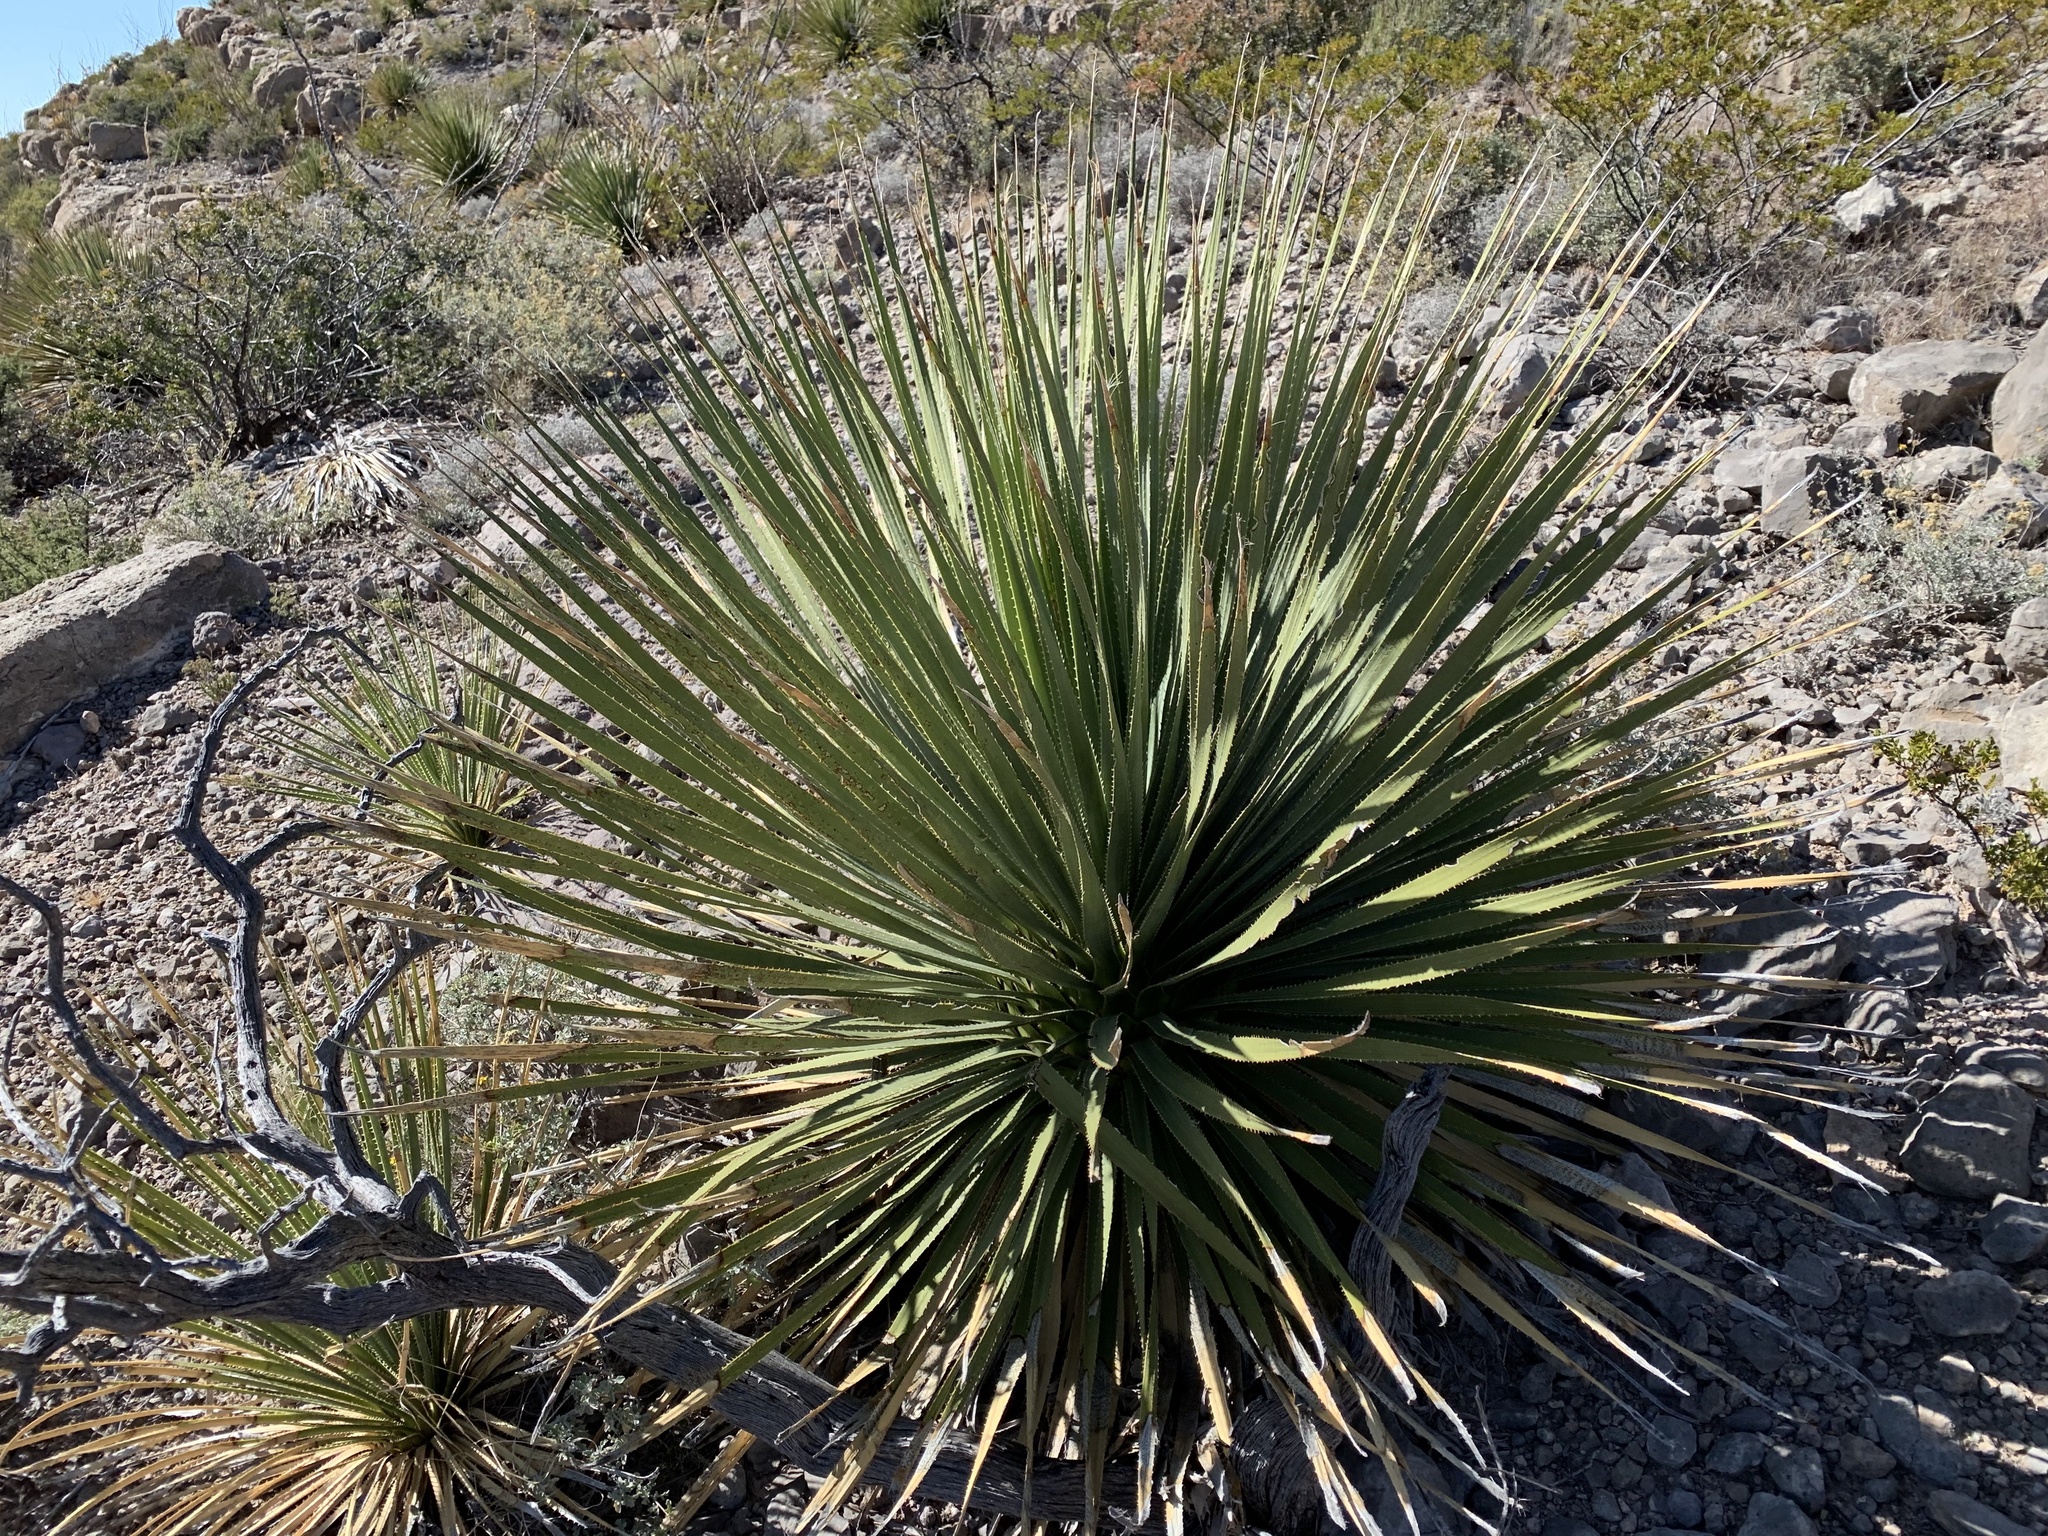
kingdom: Plantae
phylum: Tracheophyta
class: Liliopsida
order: Asparagales
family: Asparagaceae
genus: Dasylirion
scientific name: Dasylirion wheeleri
